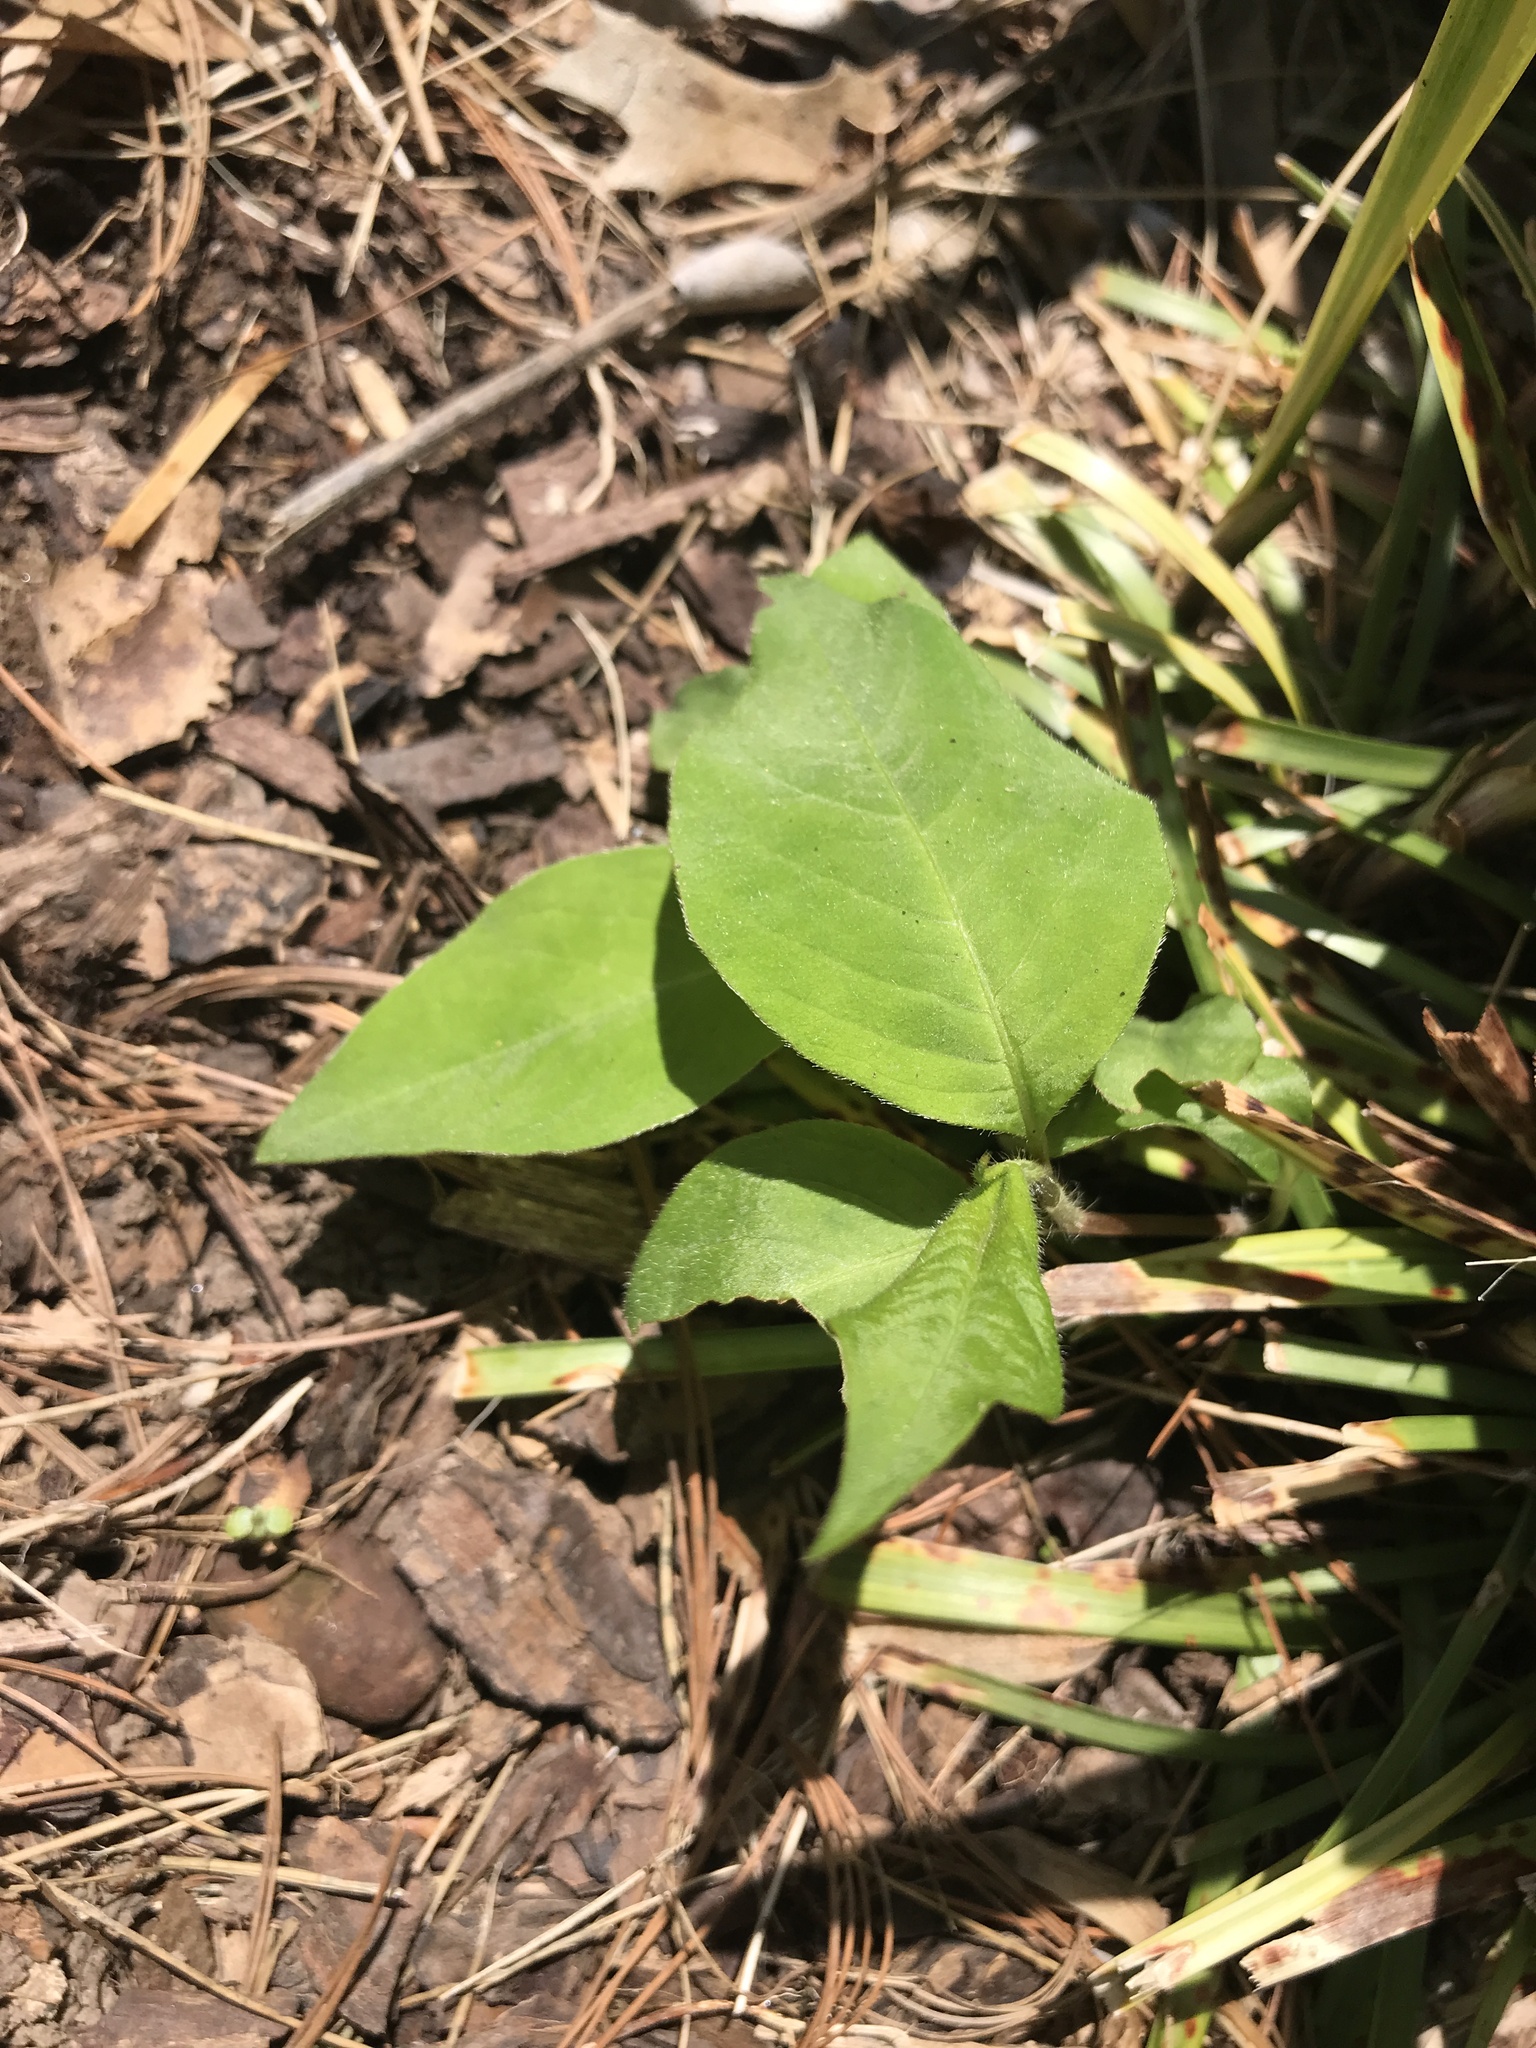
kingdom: Plantae
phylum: Tracheophyta
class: Magnoliopsida
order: Caryophyllales
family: Polygonaceae
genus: Persicaria
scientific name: Persicaria virginiana
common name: Jumpseed
